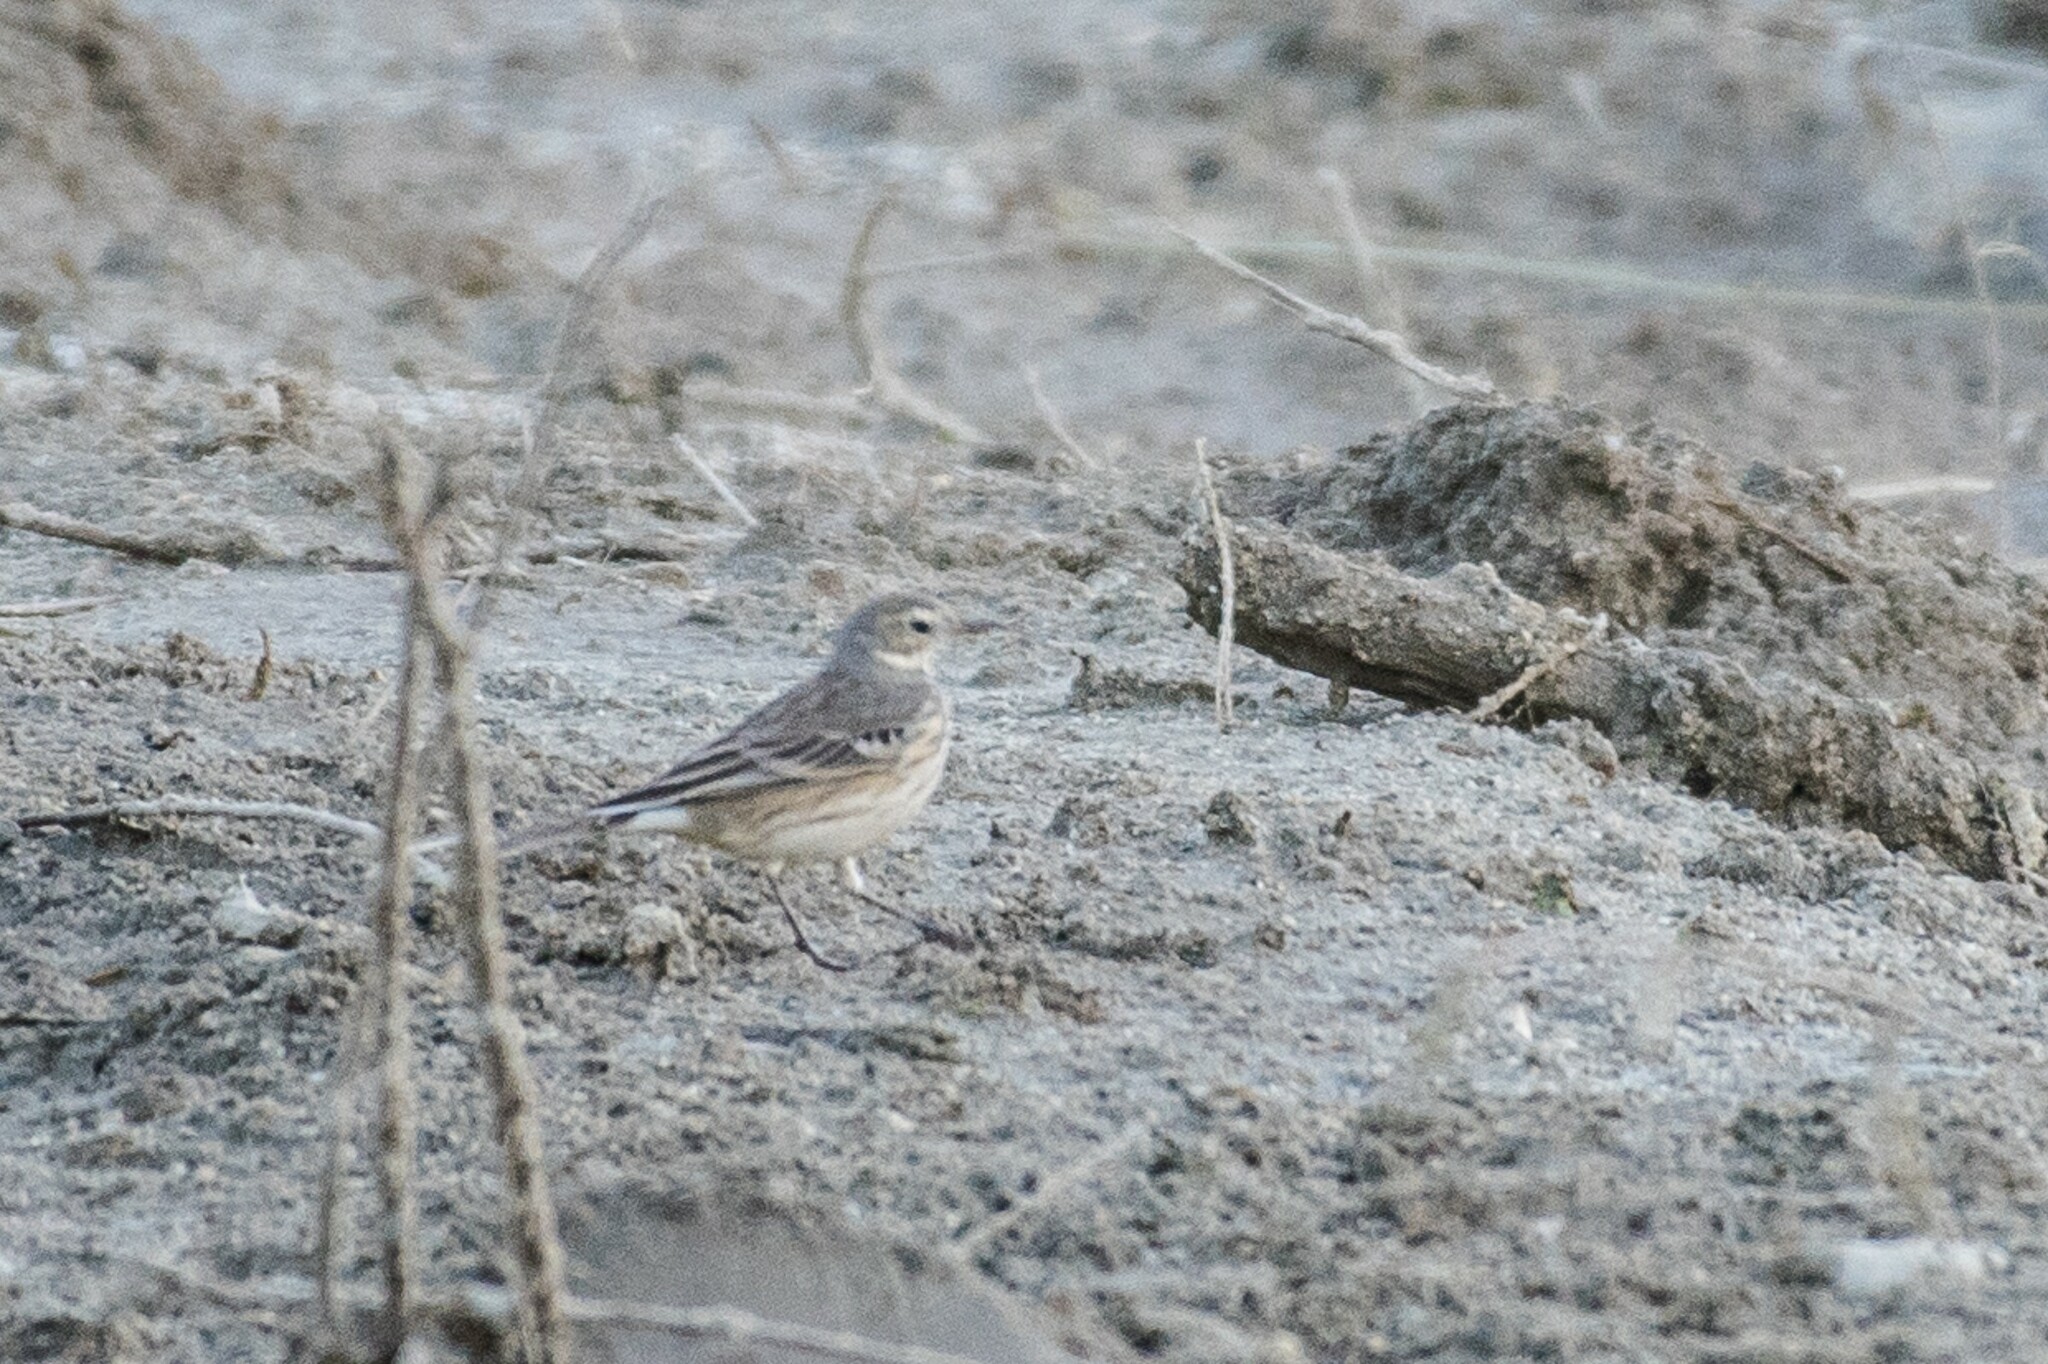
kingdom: Animalia
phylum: Chordata
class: Aves
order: Passeriformes
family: Motacillidae
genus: Anthus
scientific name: Anthus rubescens
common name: Buff-bellied pipit
